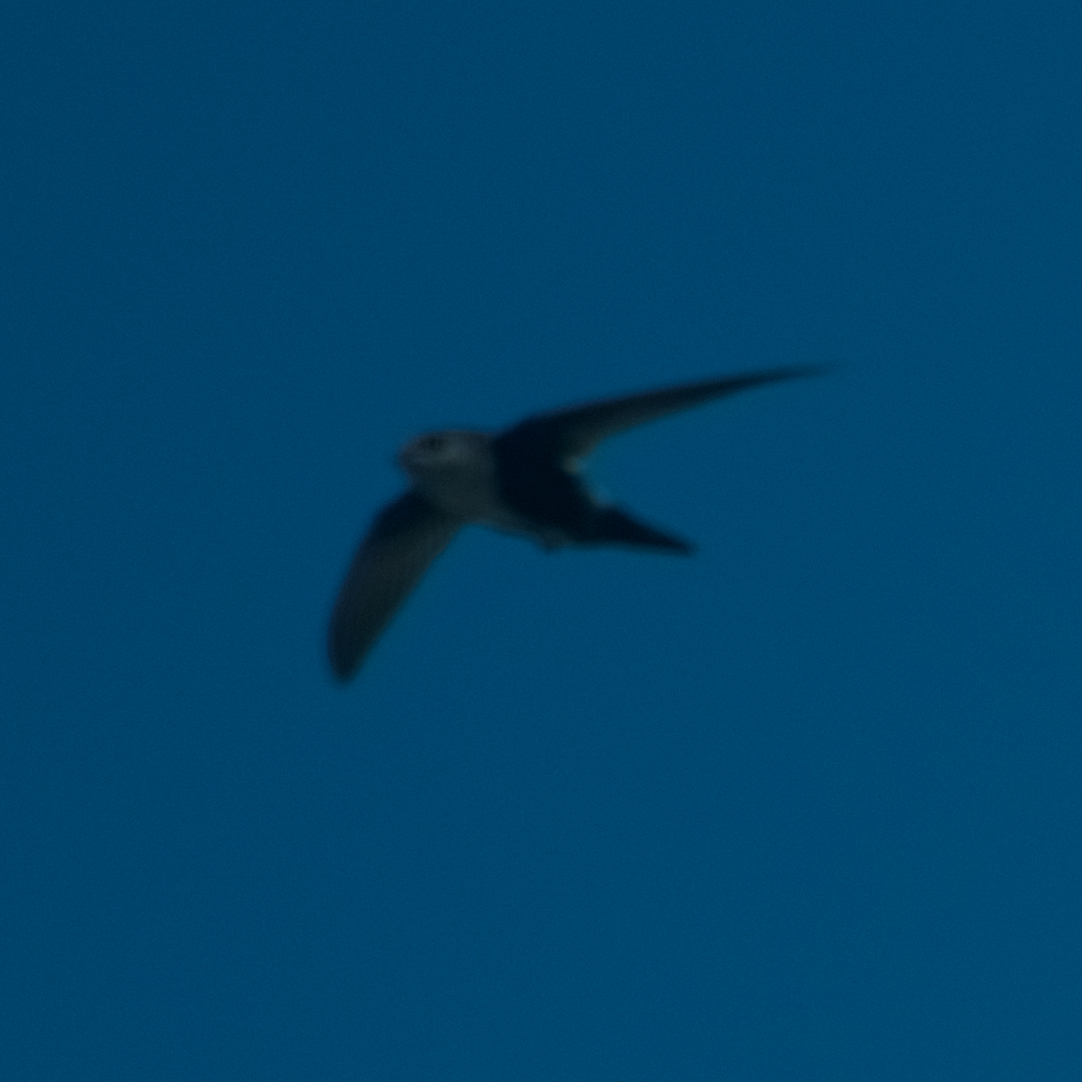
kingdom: Animalia
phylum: Chordata
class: Aves
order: Apodiformes
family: Apodidae
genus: Aeronautes
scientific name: Aeronautes saxatalis
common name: White-throated swift
